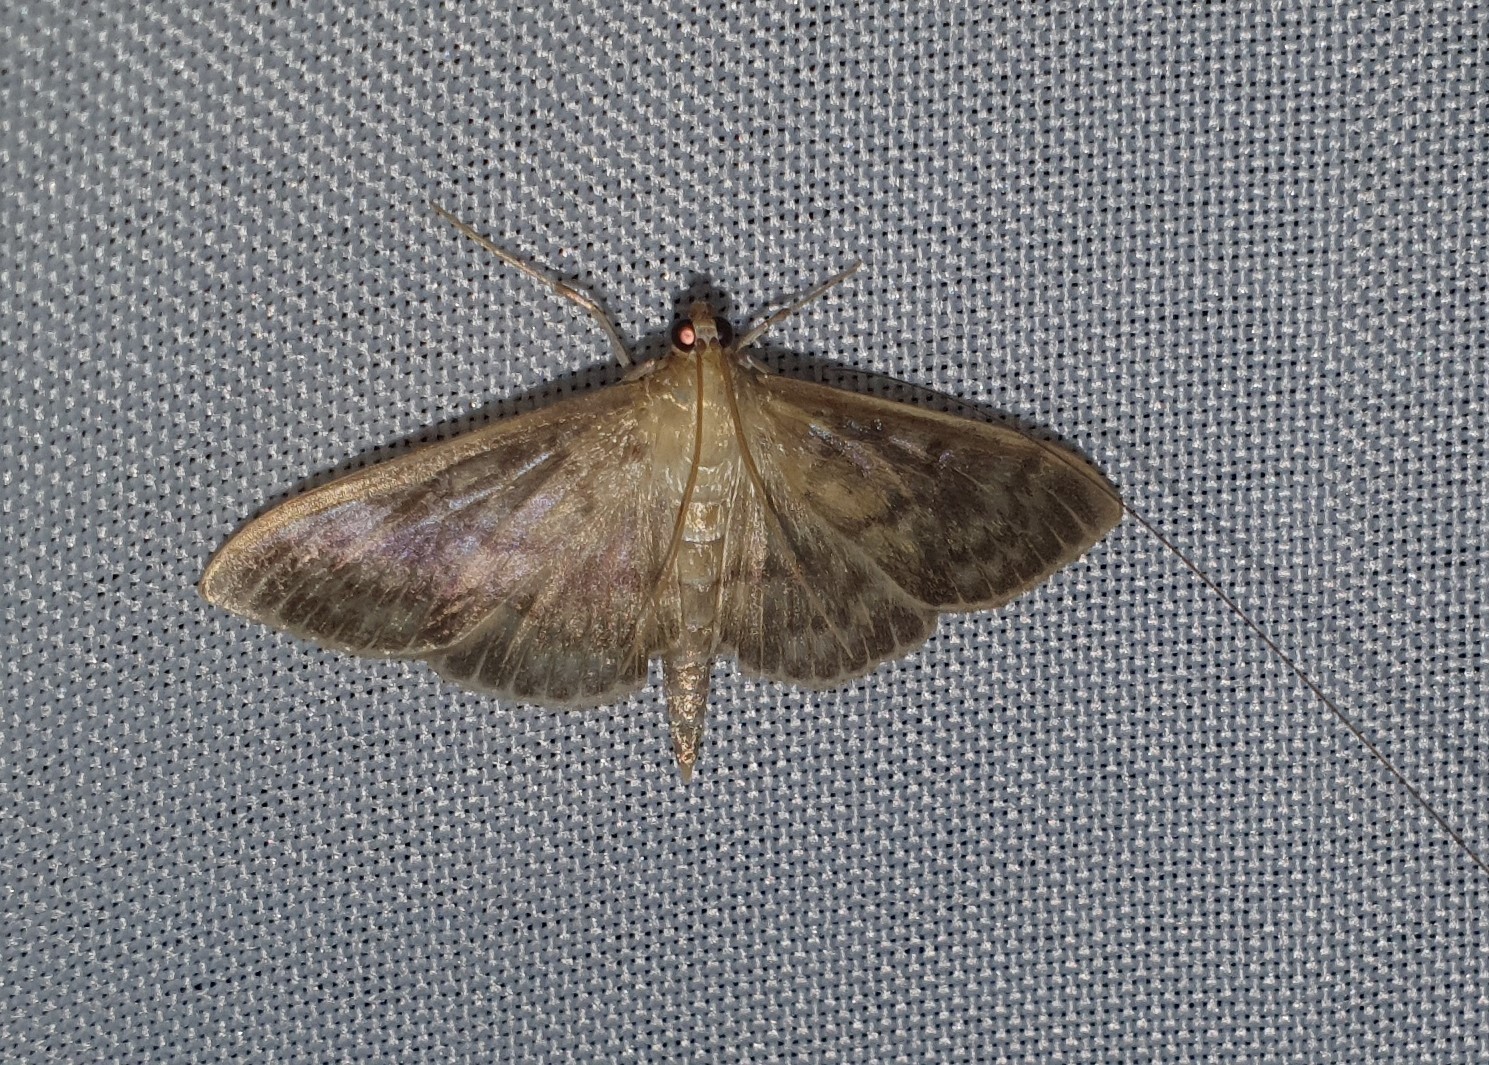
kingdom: Animalia
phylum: Arthropoda
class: Insecta
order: Lepidoptera
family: Crambidae
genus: Patania
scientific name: Patania ruralis
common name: Mother of pearl
